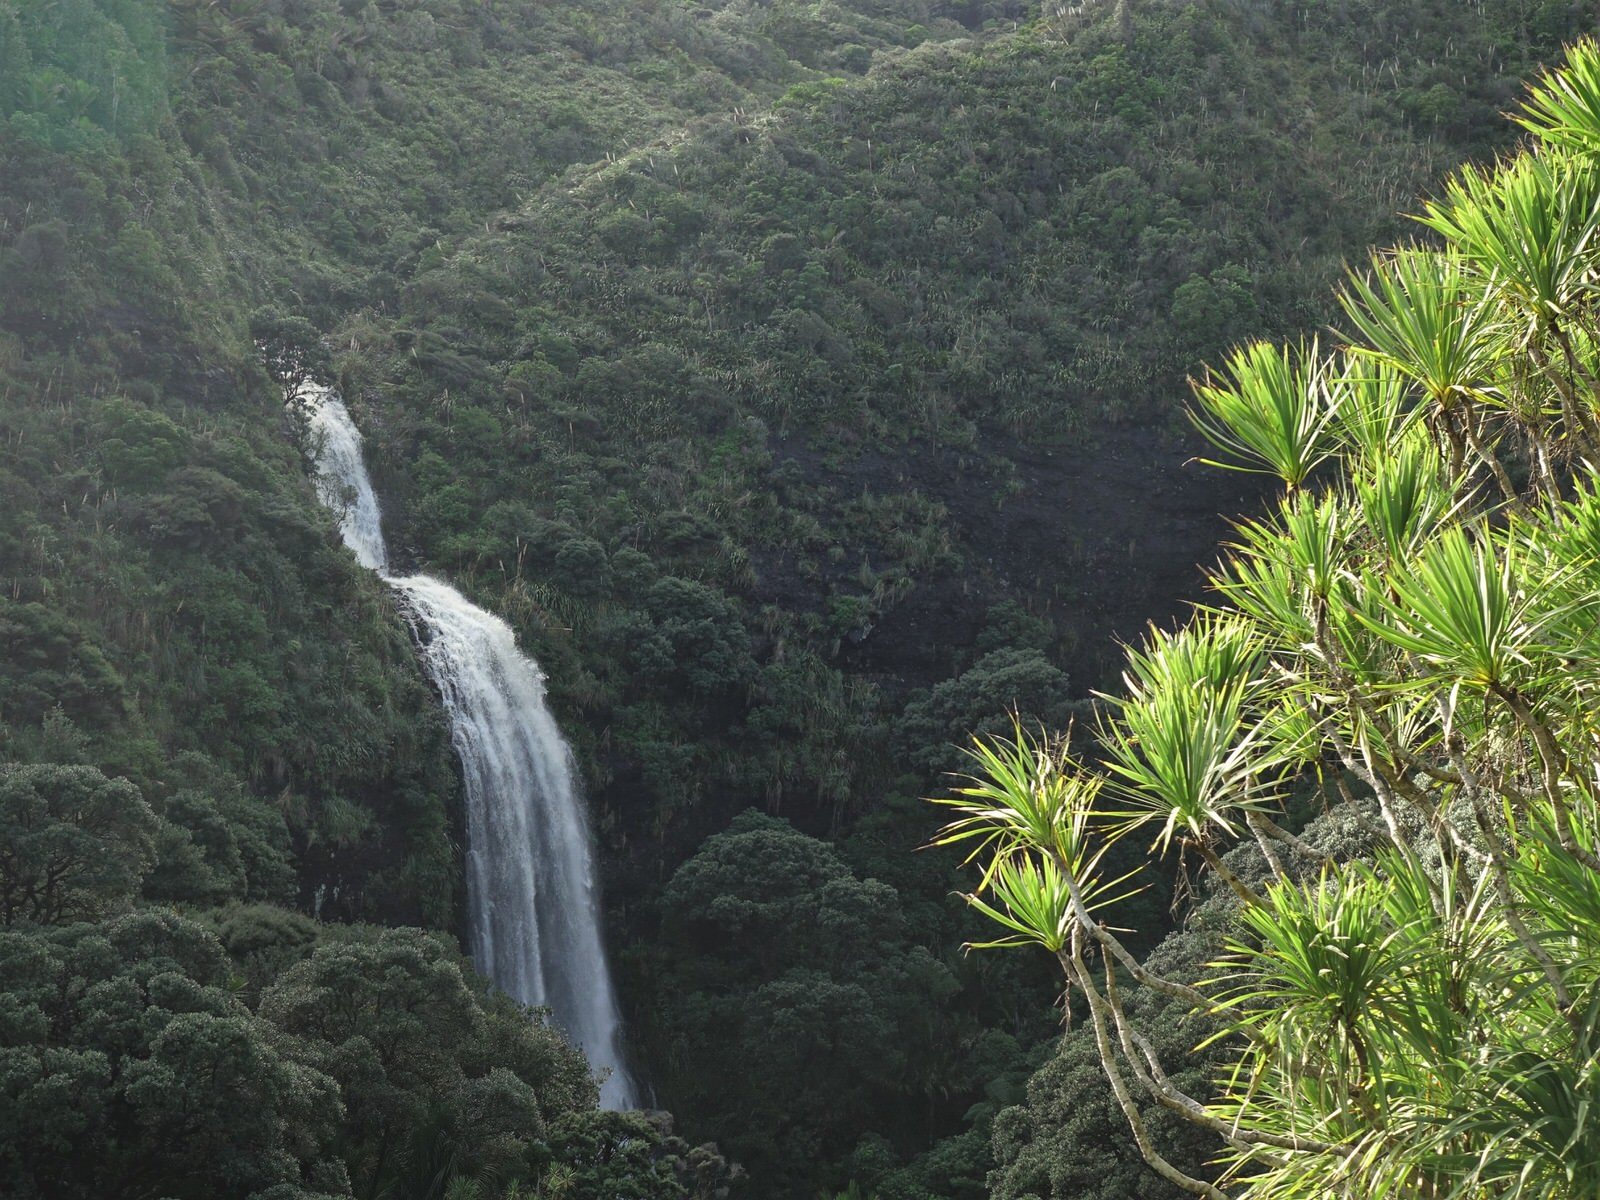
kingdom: Plantae
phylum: Tracheophyta
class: Liliopsida
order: Asparagales
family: Asparagaceae
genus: Cordyline
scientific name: Cordyline australis
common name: Cabbage-palm
